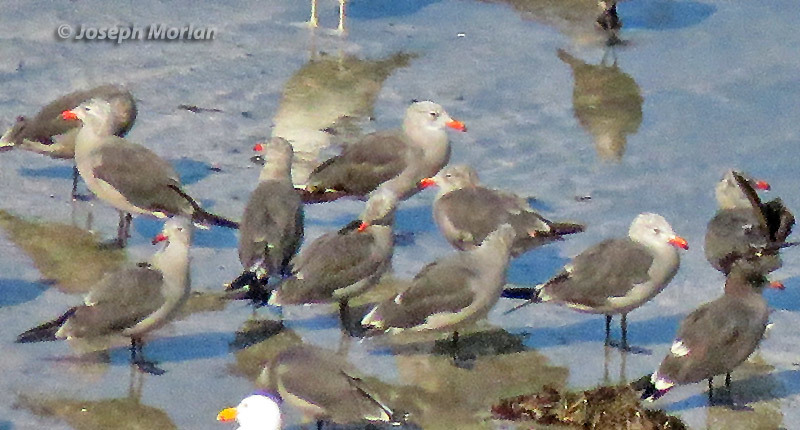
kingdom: Animalia
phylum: Chordata
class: Aves
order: Charadriiformes
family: Laridae
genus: Larus
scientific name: Larus heermanni
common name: Heermann's gull
